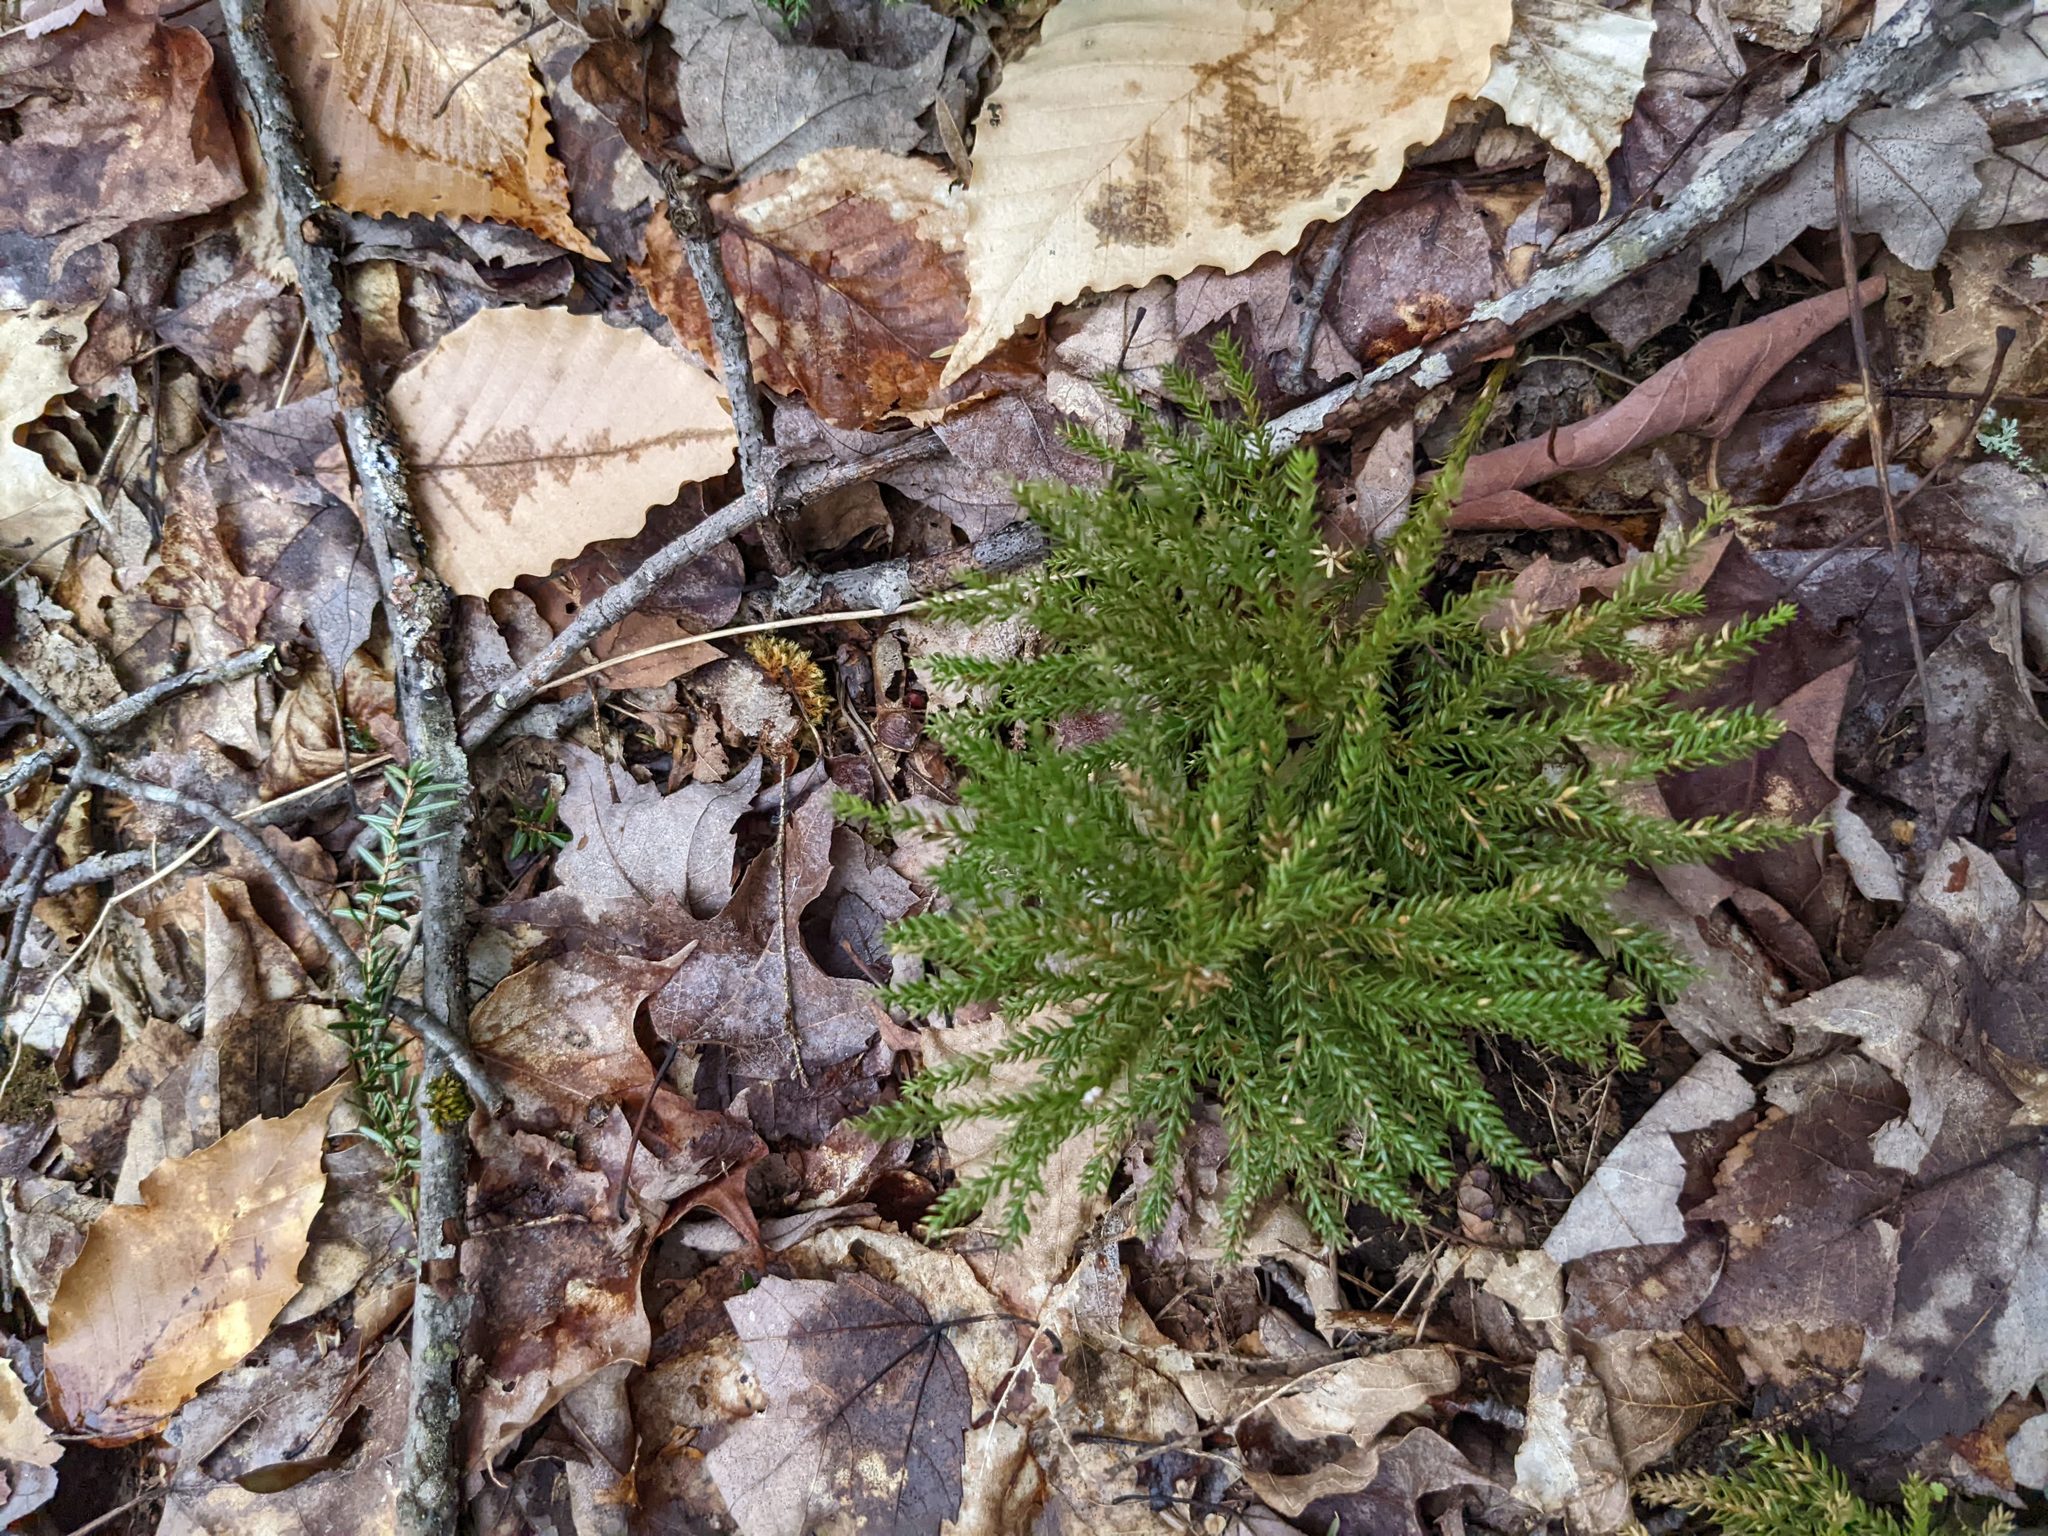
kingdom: Plantae
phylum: Tracheophyta
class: Magnoliopsida
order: Fagales
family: Fagaceae
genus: Fagus
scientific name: Fagus grandifolia
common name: American beech
